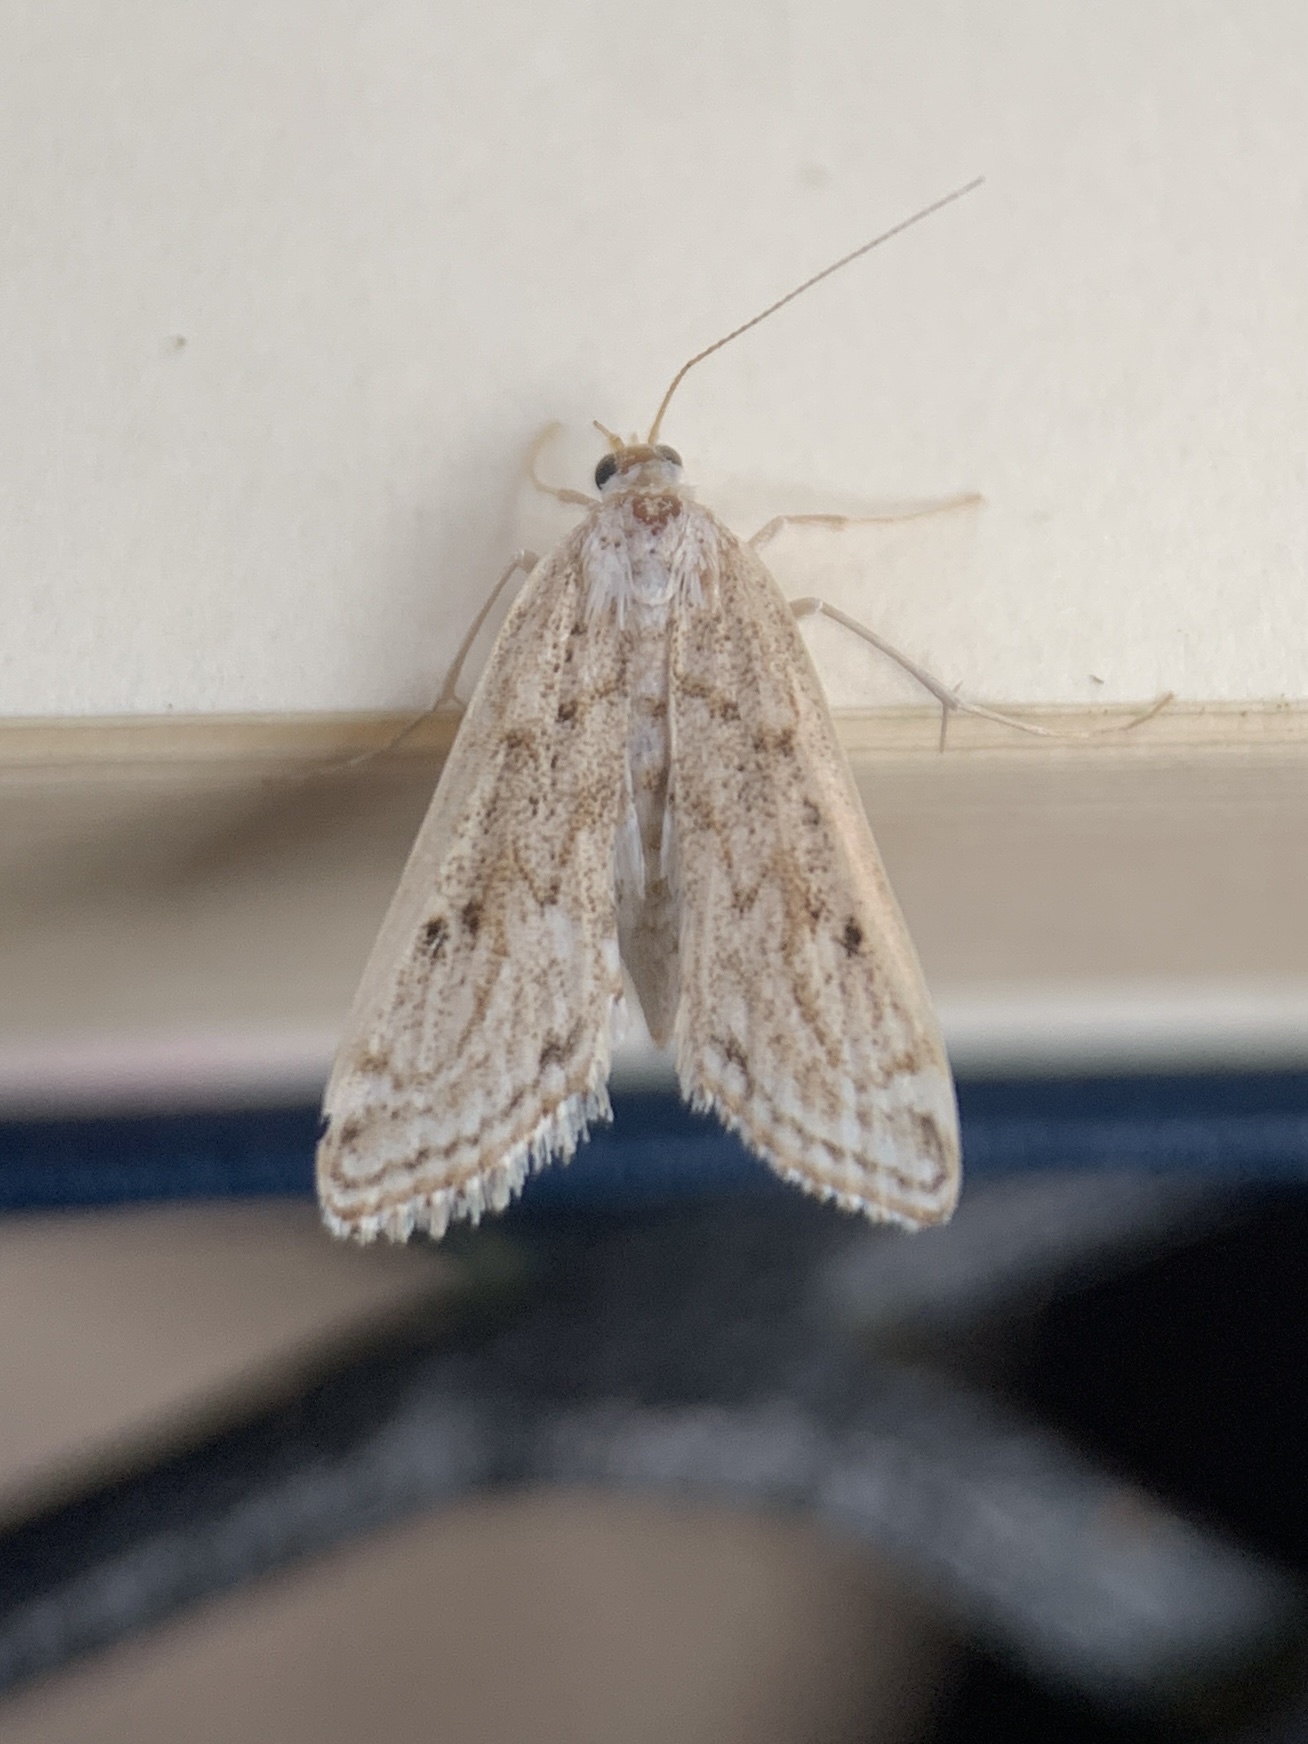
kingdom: Animalia
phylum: Arthropoda
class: Insecta
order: Lepidoptera
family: Crambidae
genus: Parapoynx
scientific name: Parapoynx allionealis
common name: Bladderwort casemaker
